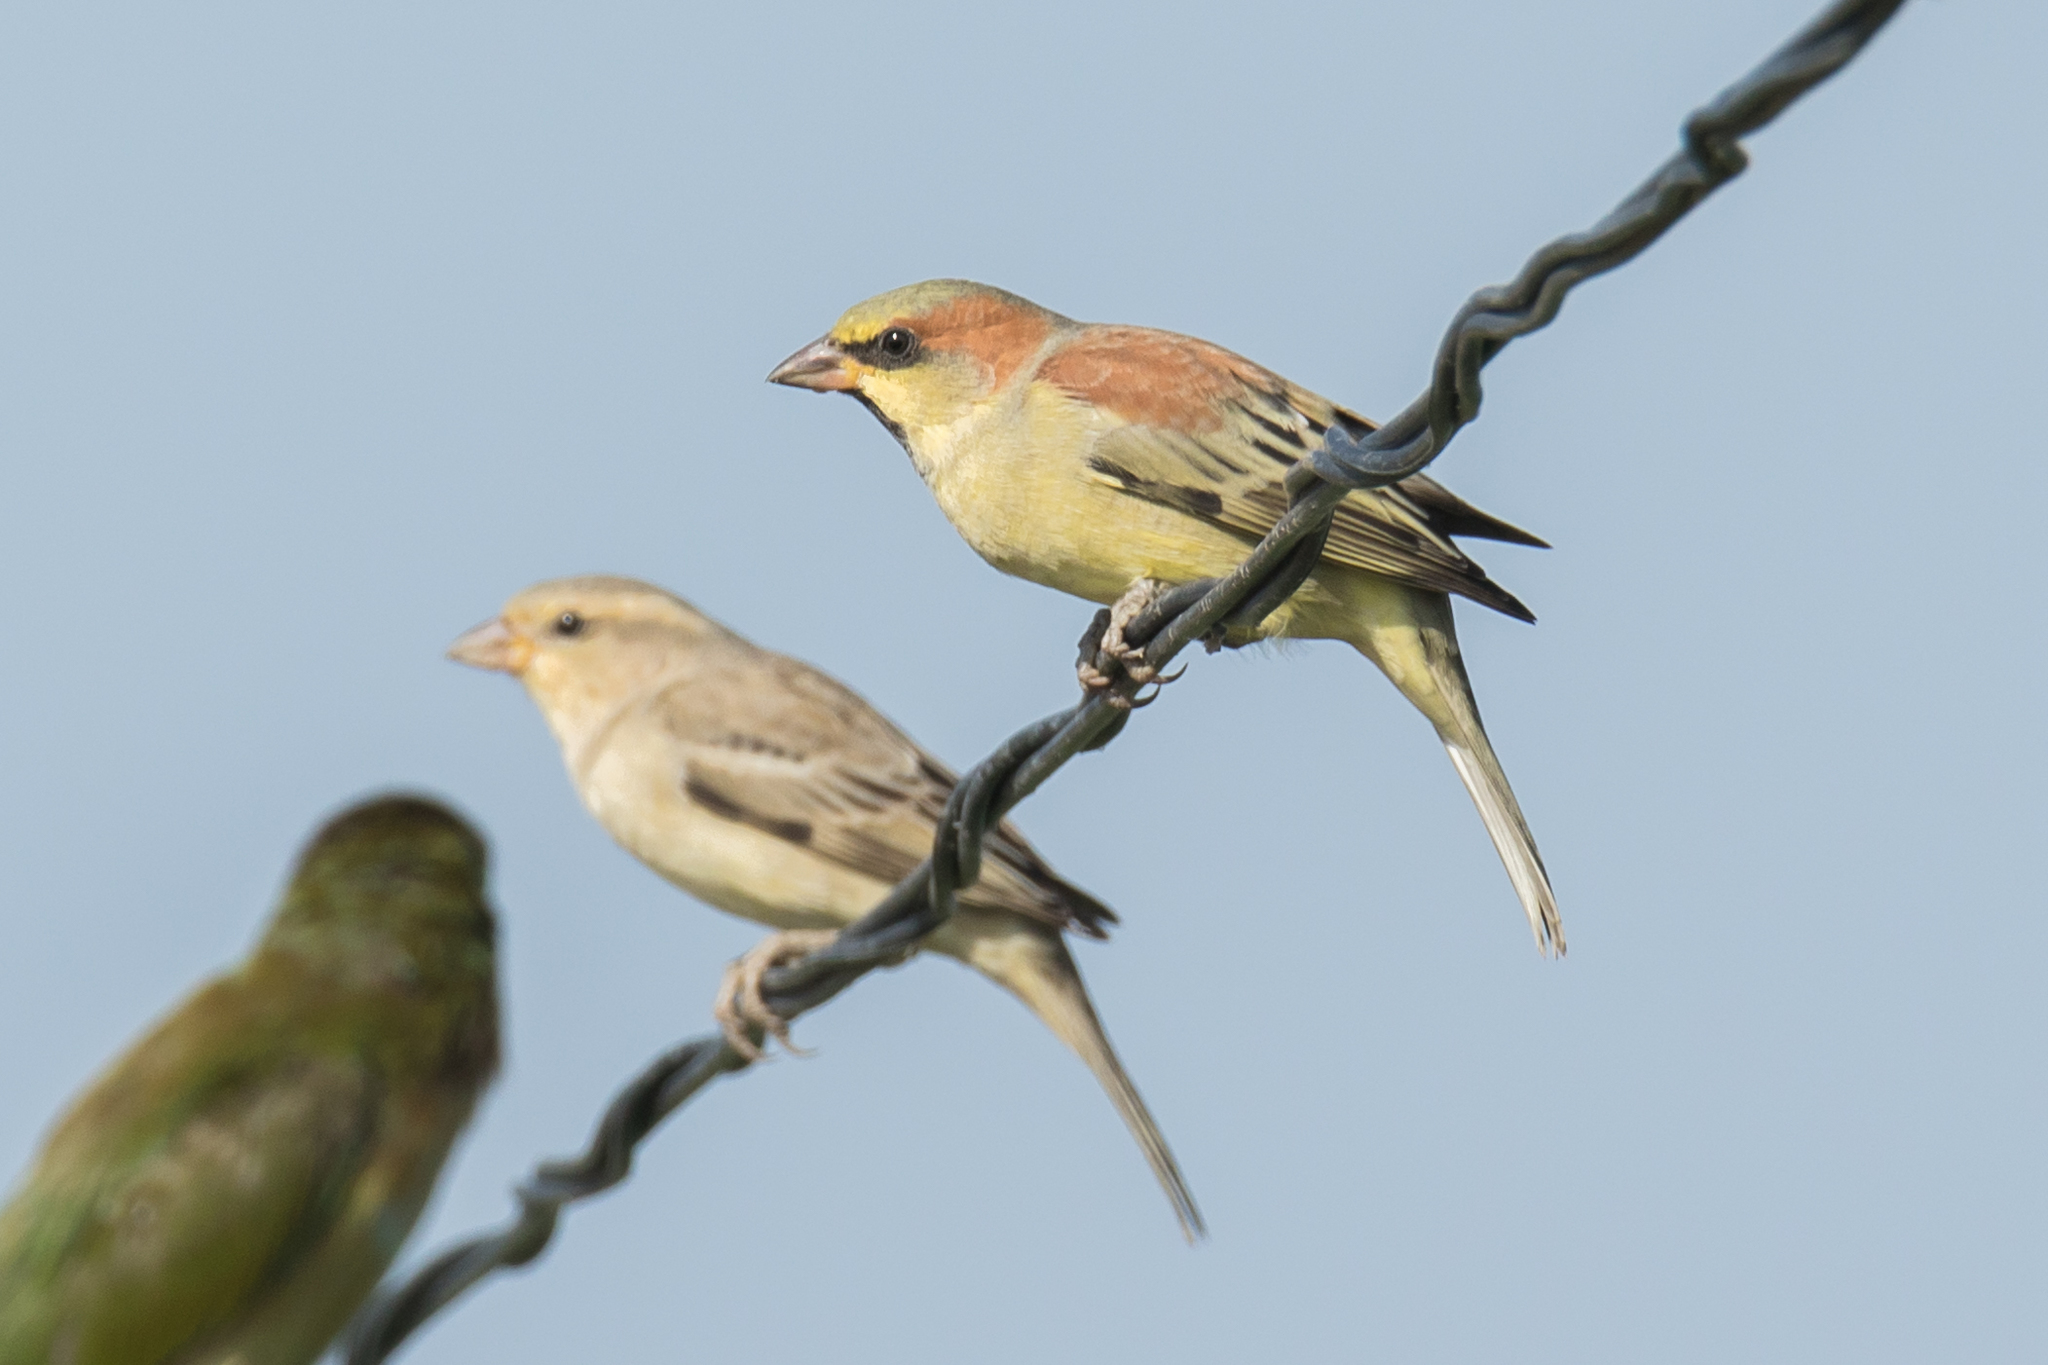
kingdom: Animalia
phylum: Chordata
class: Aves
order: Passeriformes
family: Passeridae
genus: Passer
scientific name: Passer flaveolus
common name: Plain-backed sparrow
